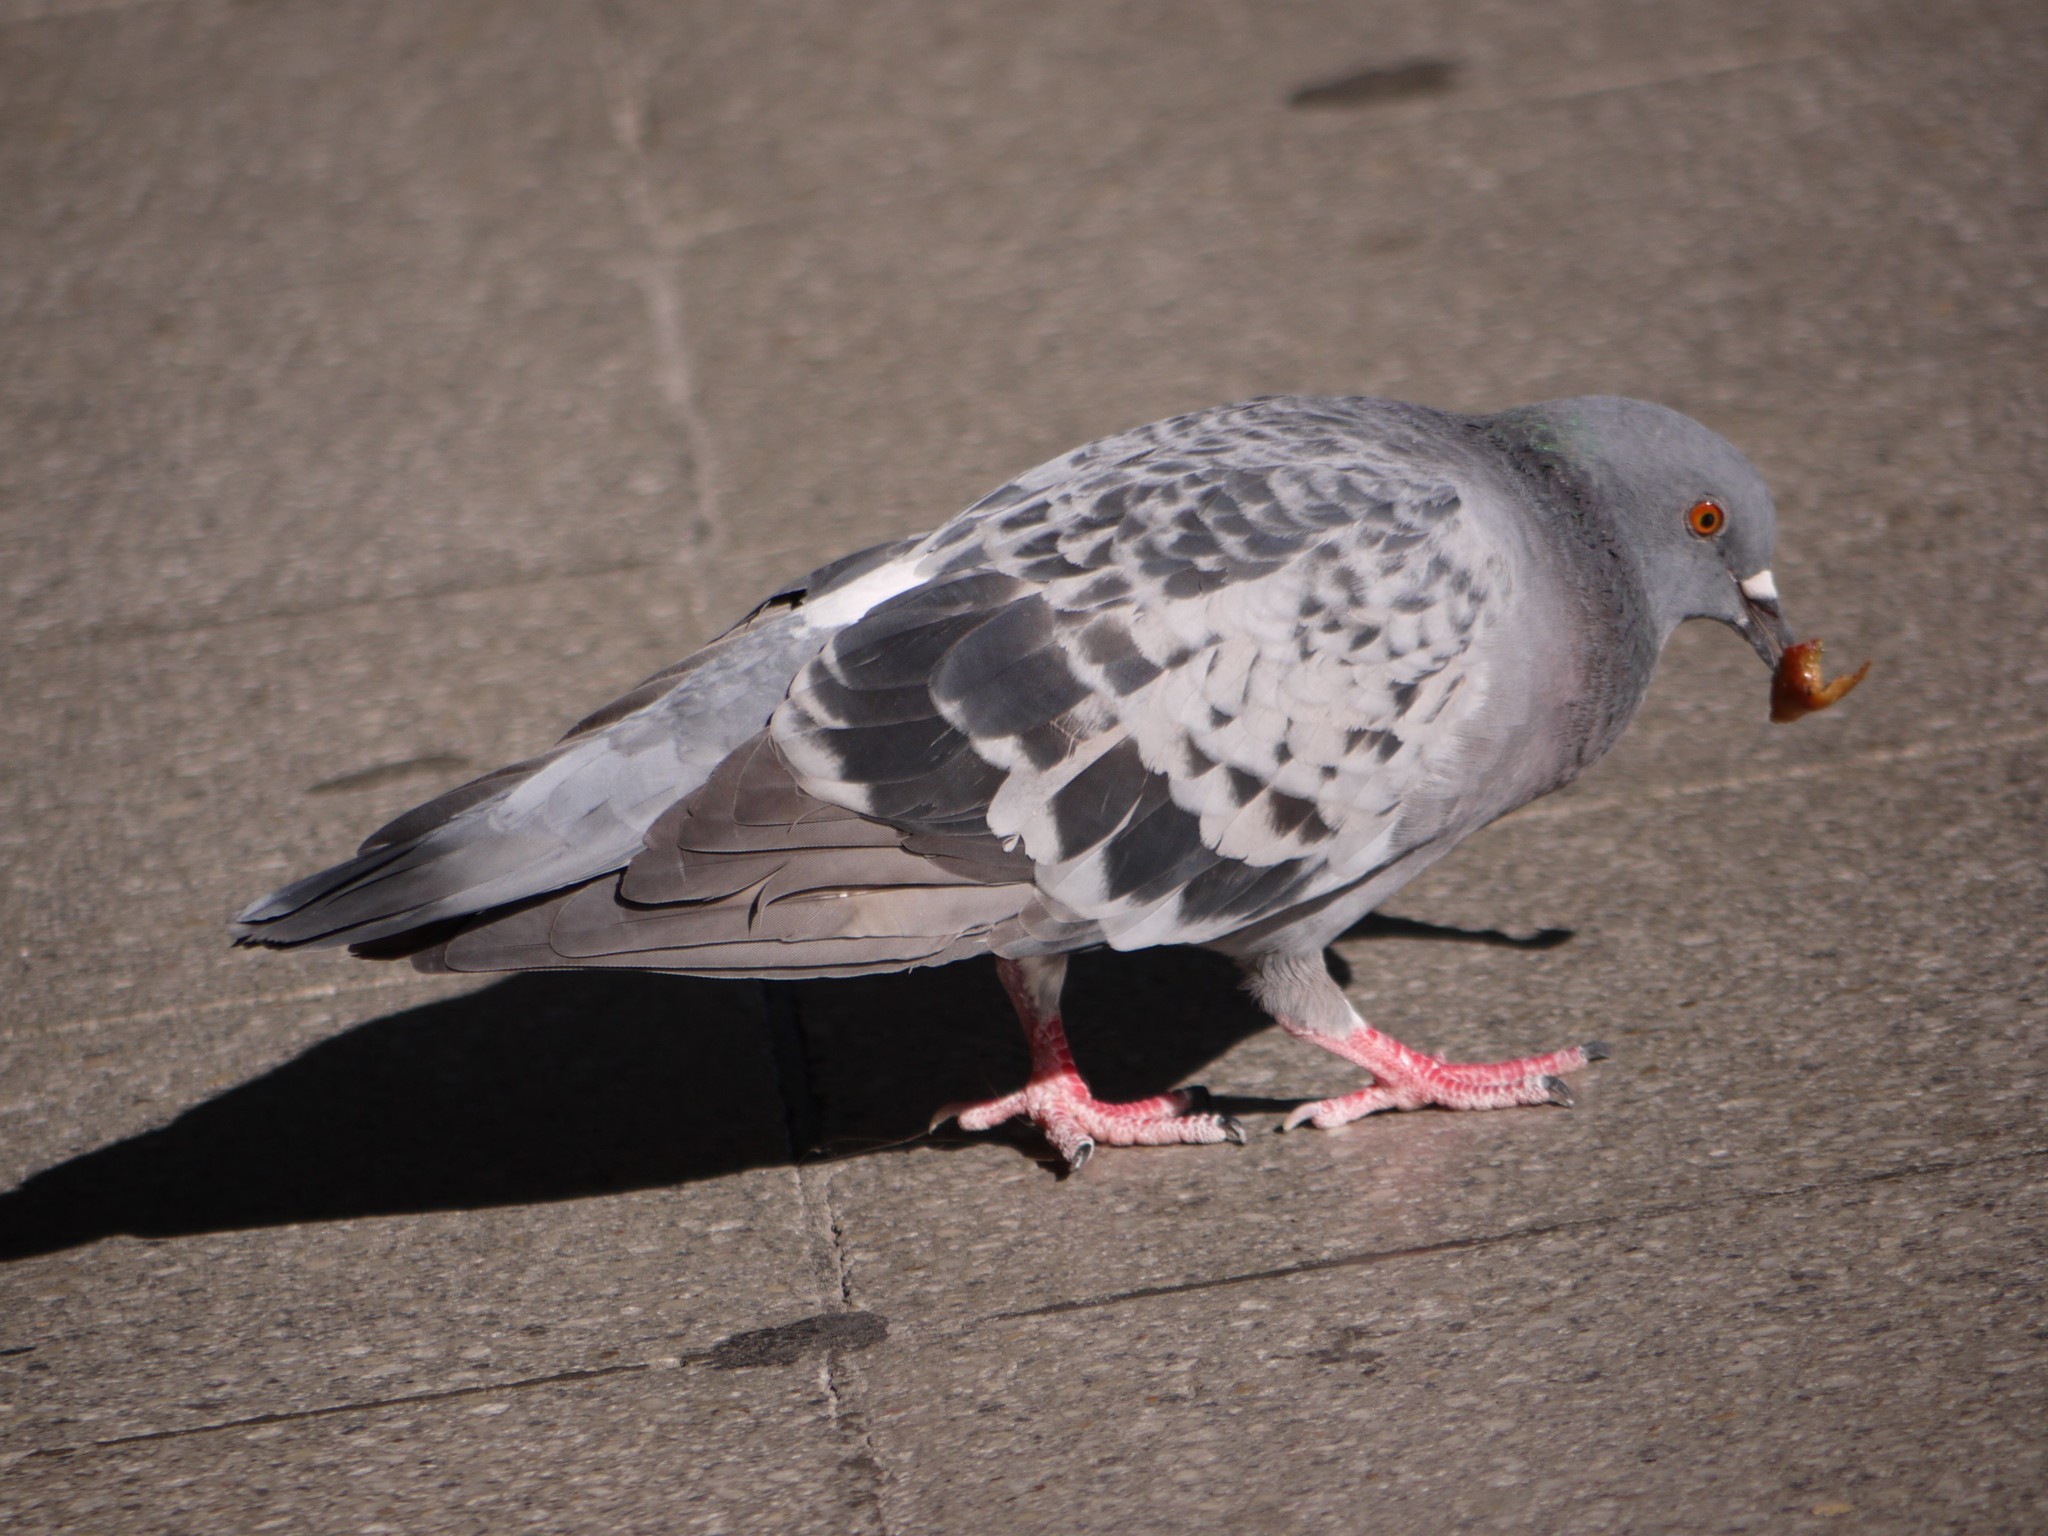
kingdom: Animalia
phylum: Chordata
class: Aves
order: Columbiformes
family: Columbidae
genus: Columba
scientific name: Columba livia
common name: Rock pigeon
